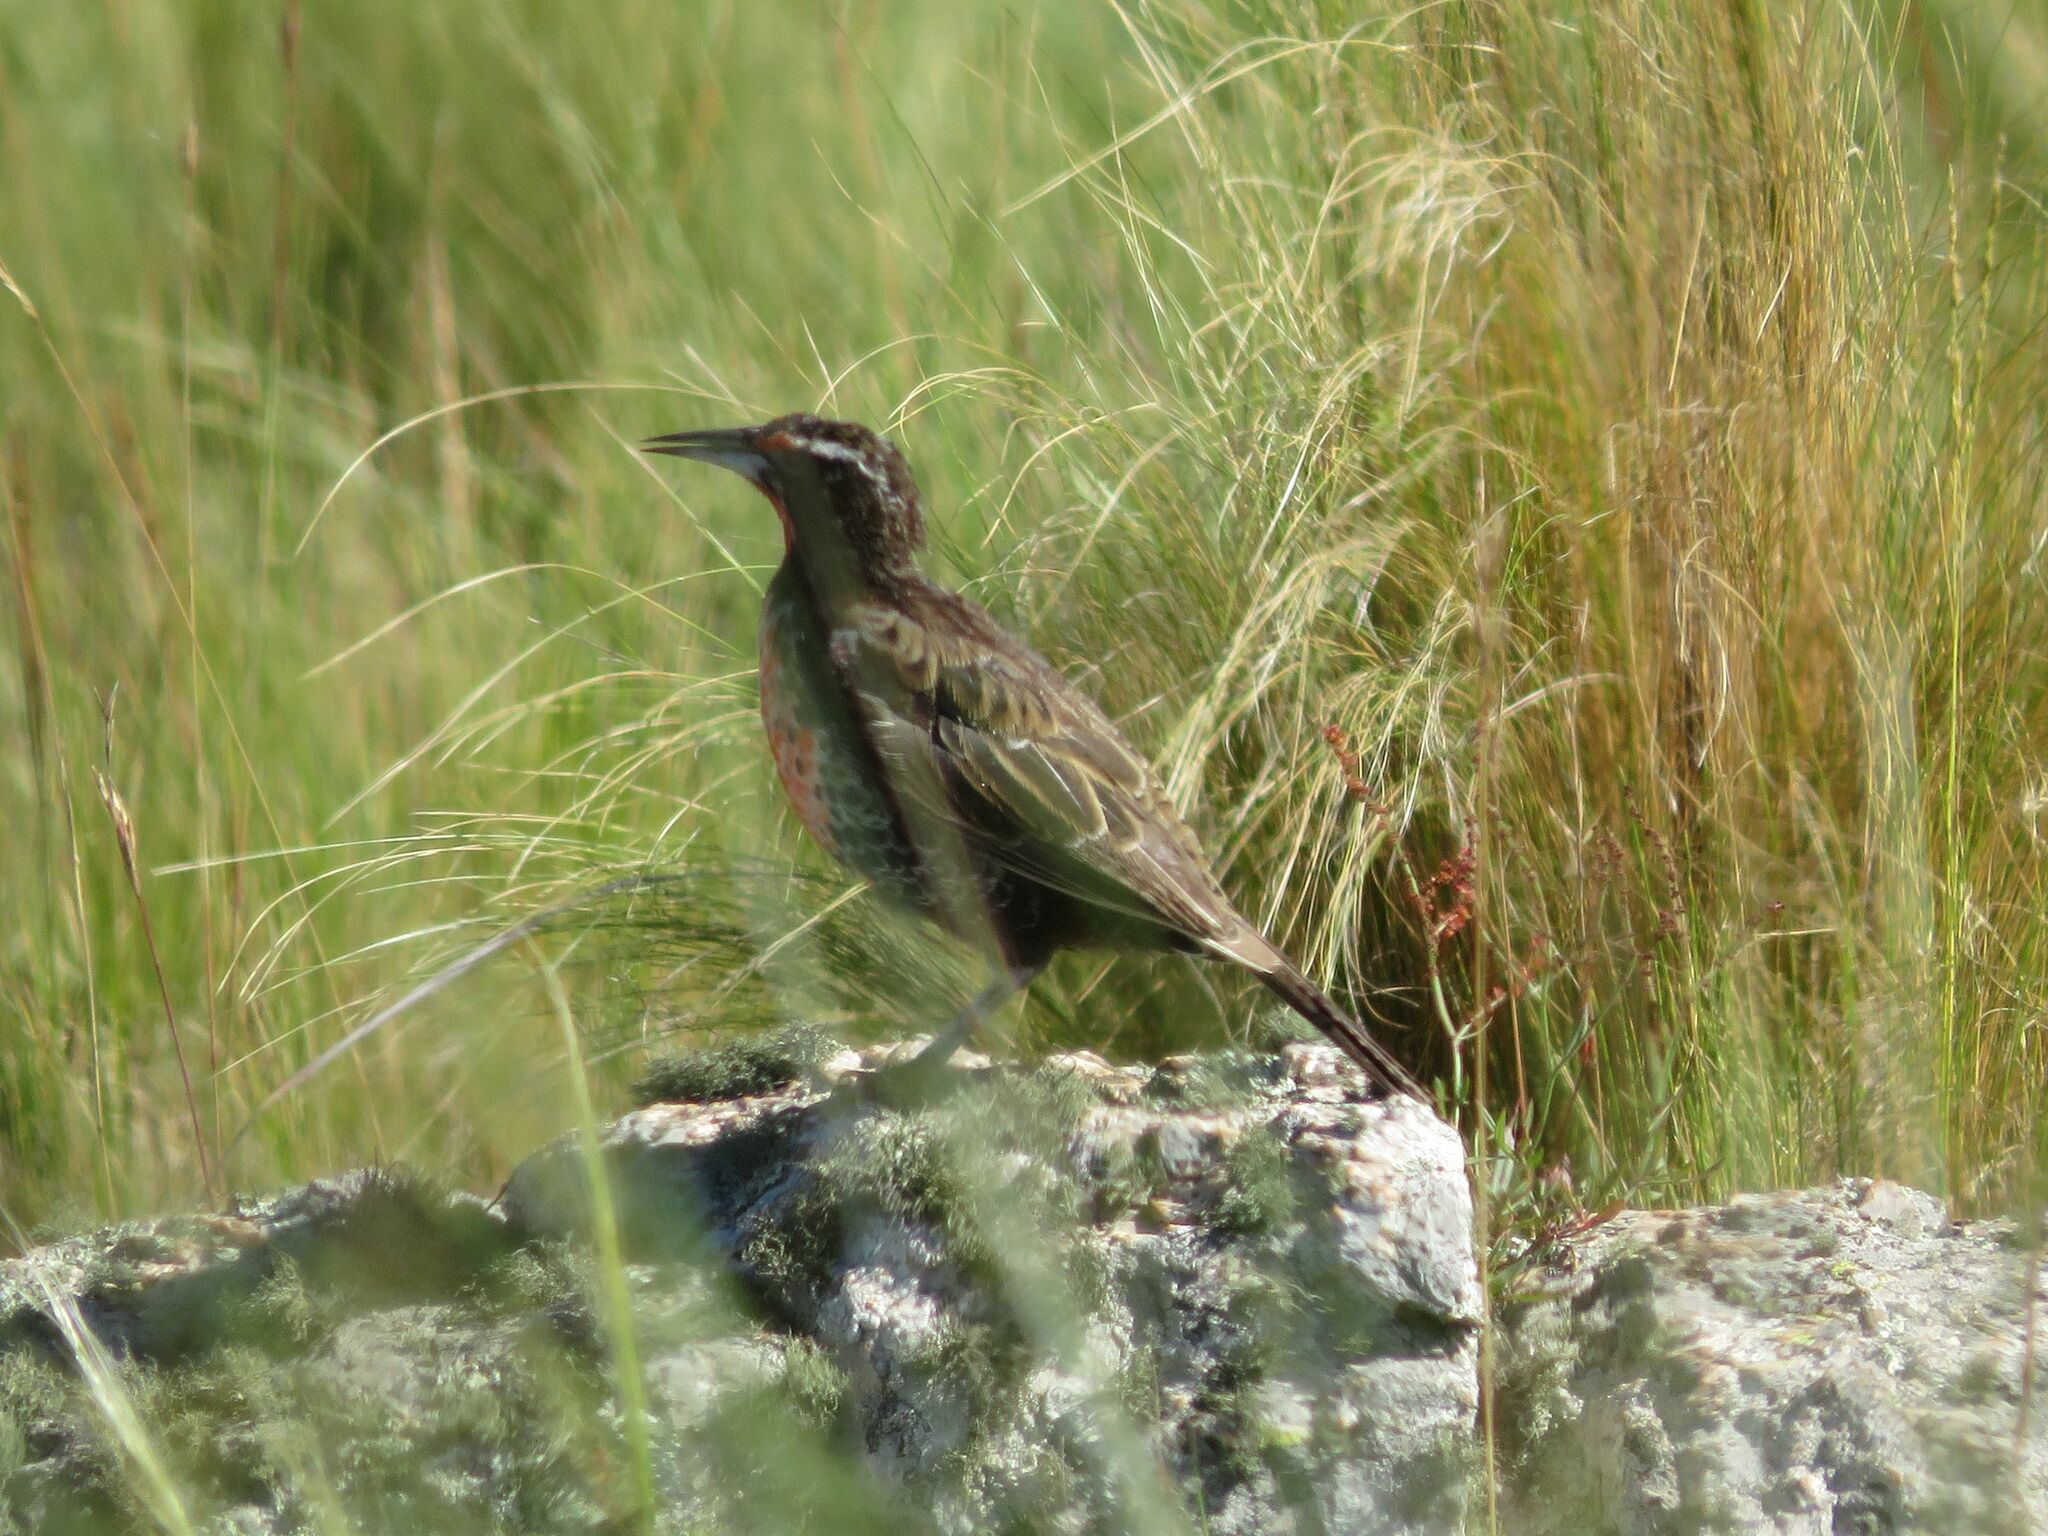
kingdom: Animalia
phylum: Chordata
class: Aves
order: Passeriformes
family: Icteridae
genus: Sturnella
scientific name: Sturnella loyca
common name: Long-tailed meadowlark
